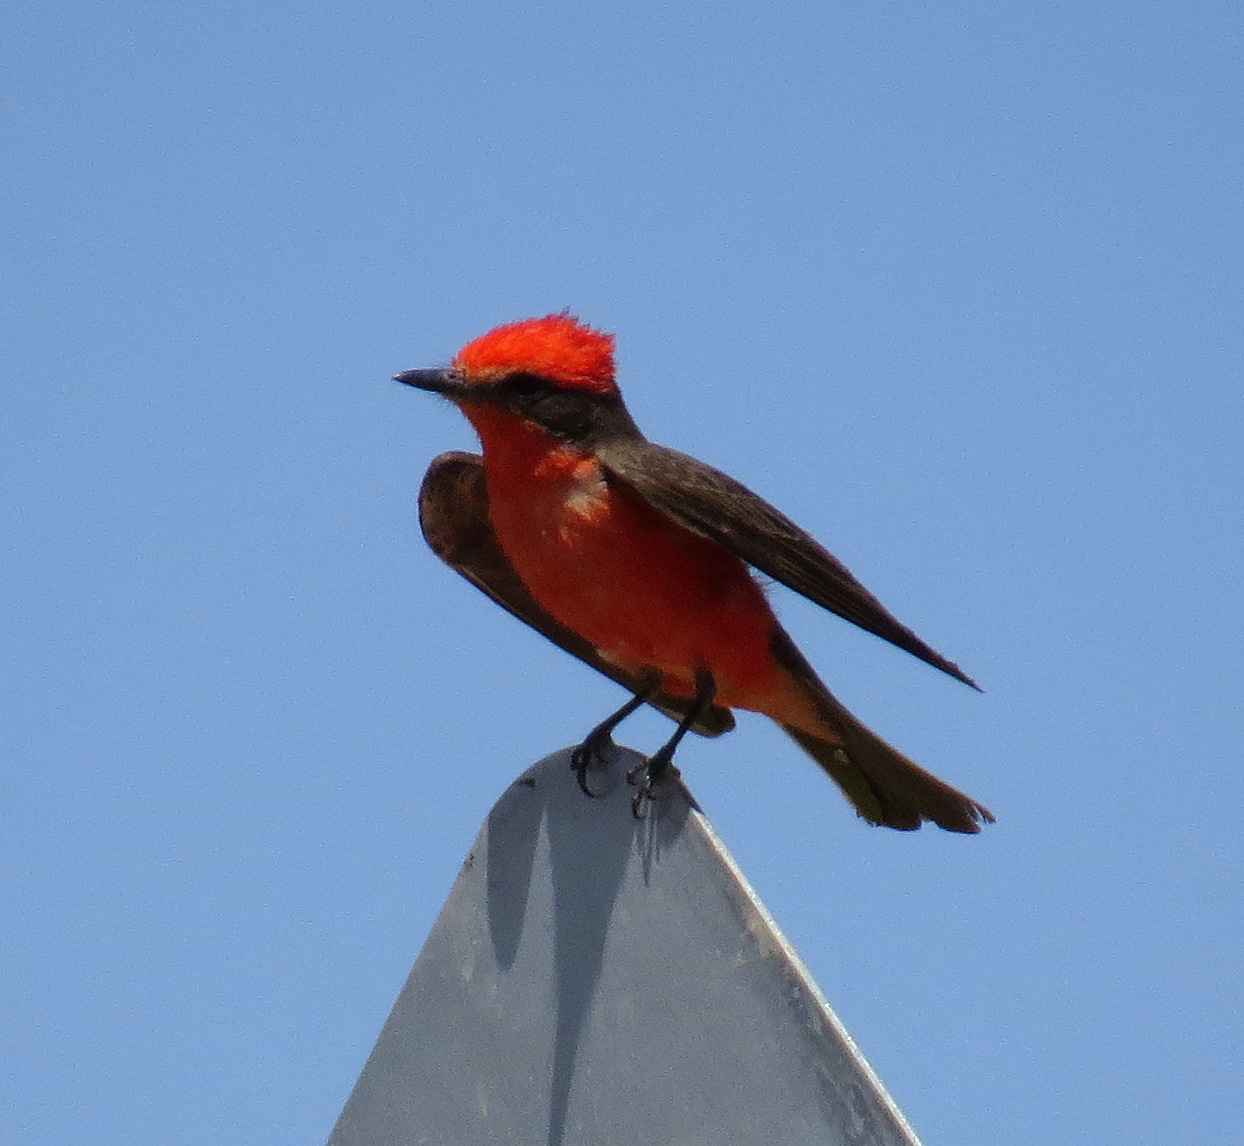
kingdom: Animalia
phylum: Chordata
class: Aves
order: Passeriformes
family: Tyrannidae
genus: Pyrocephalus
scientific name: Pyrocephalus rubinus
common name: Vermilion flycatcher
